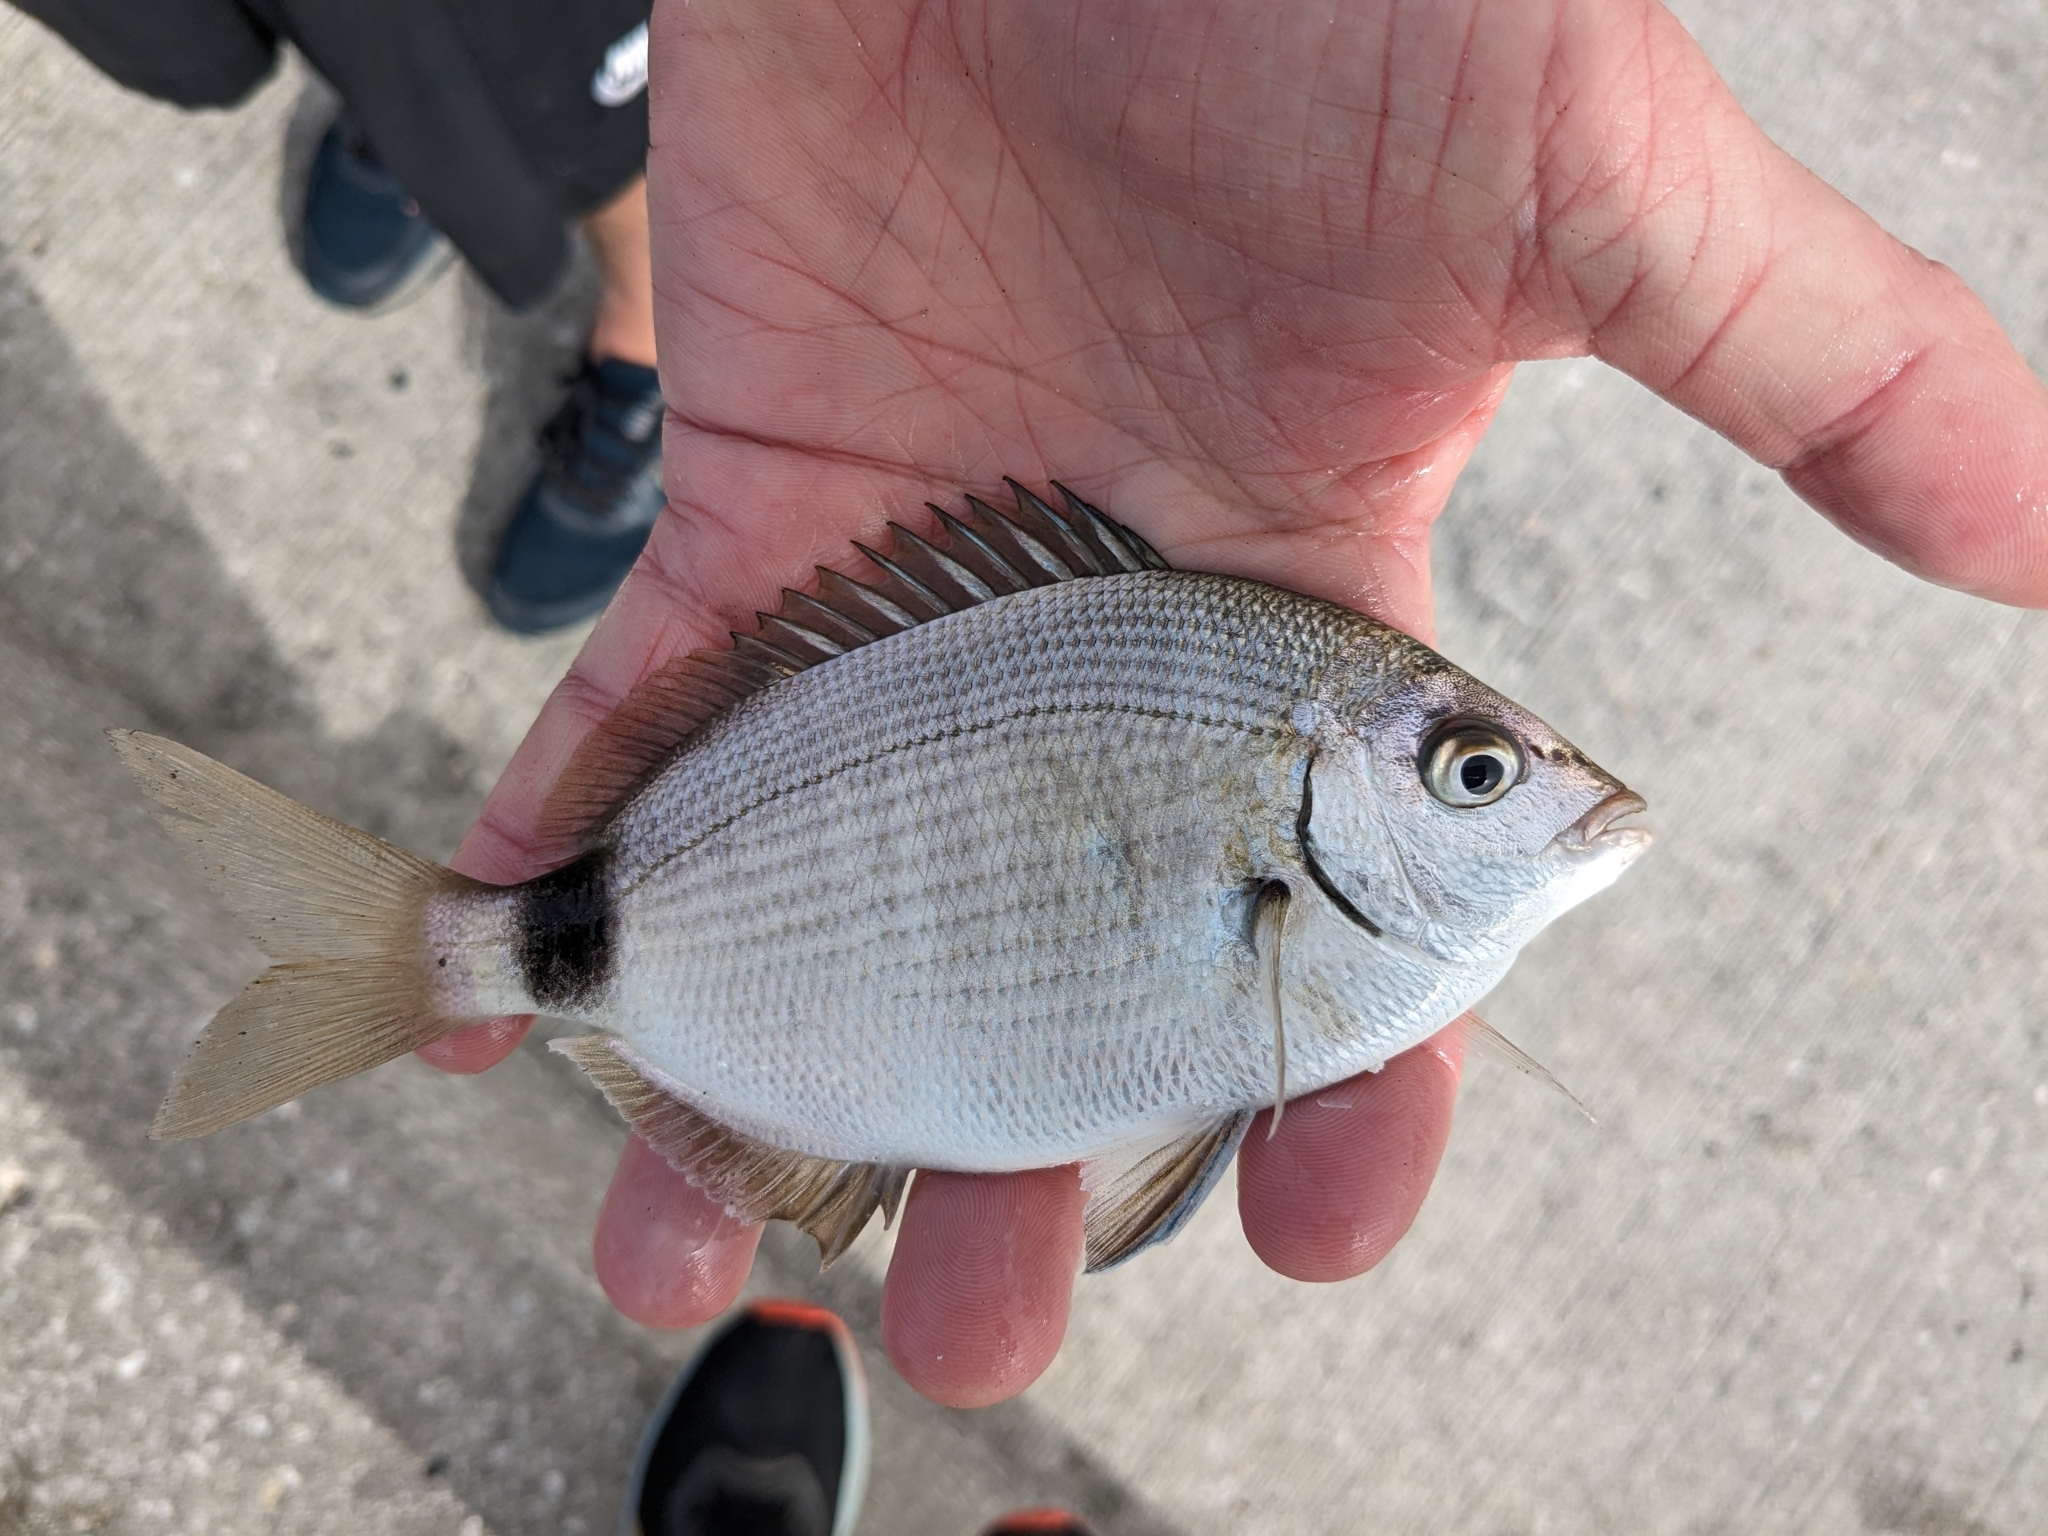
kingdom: Animalia
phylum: Chordata
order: Perciformes
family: Sparidae
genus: Diplodus
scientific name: Diplodus holbrookii
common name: Porgy
